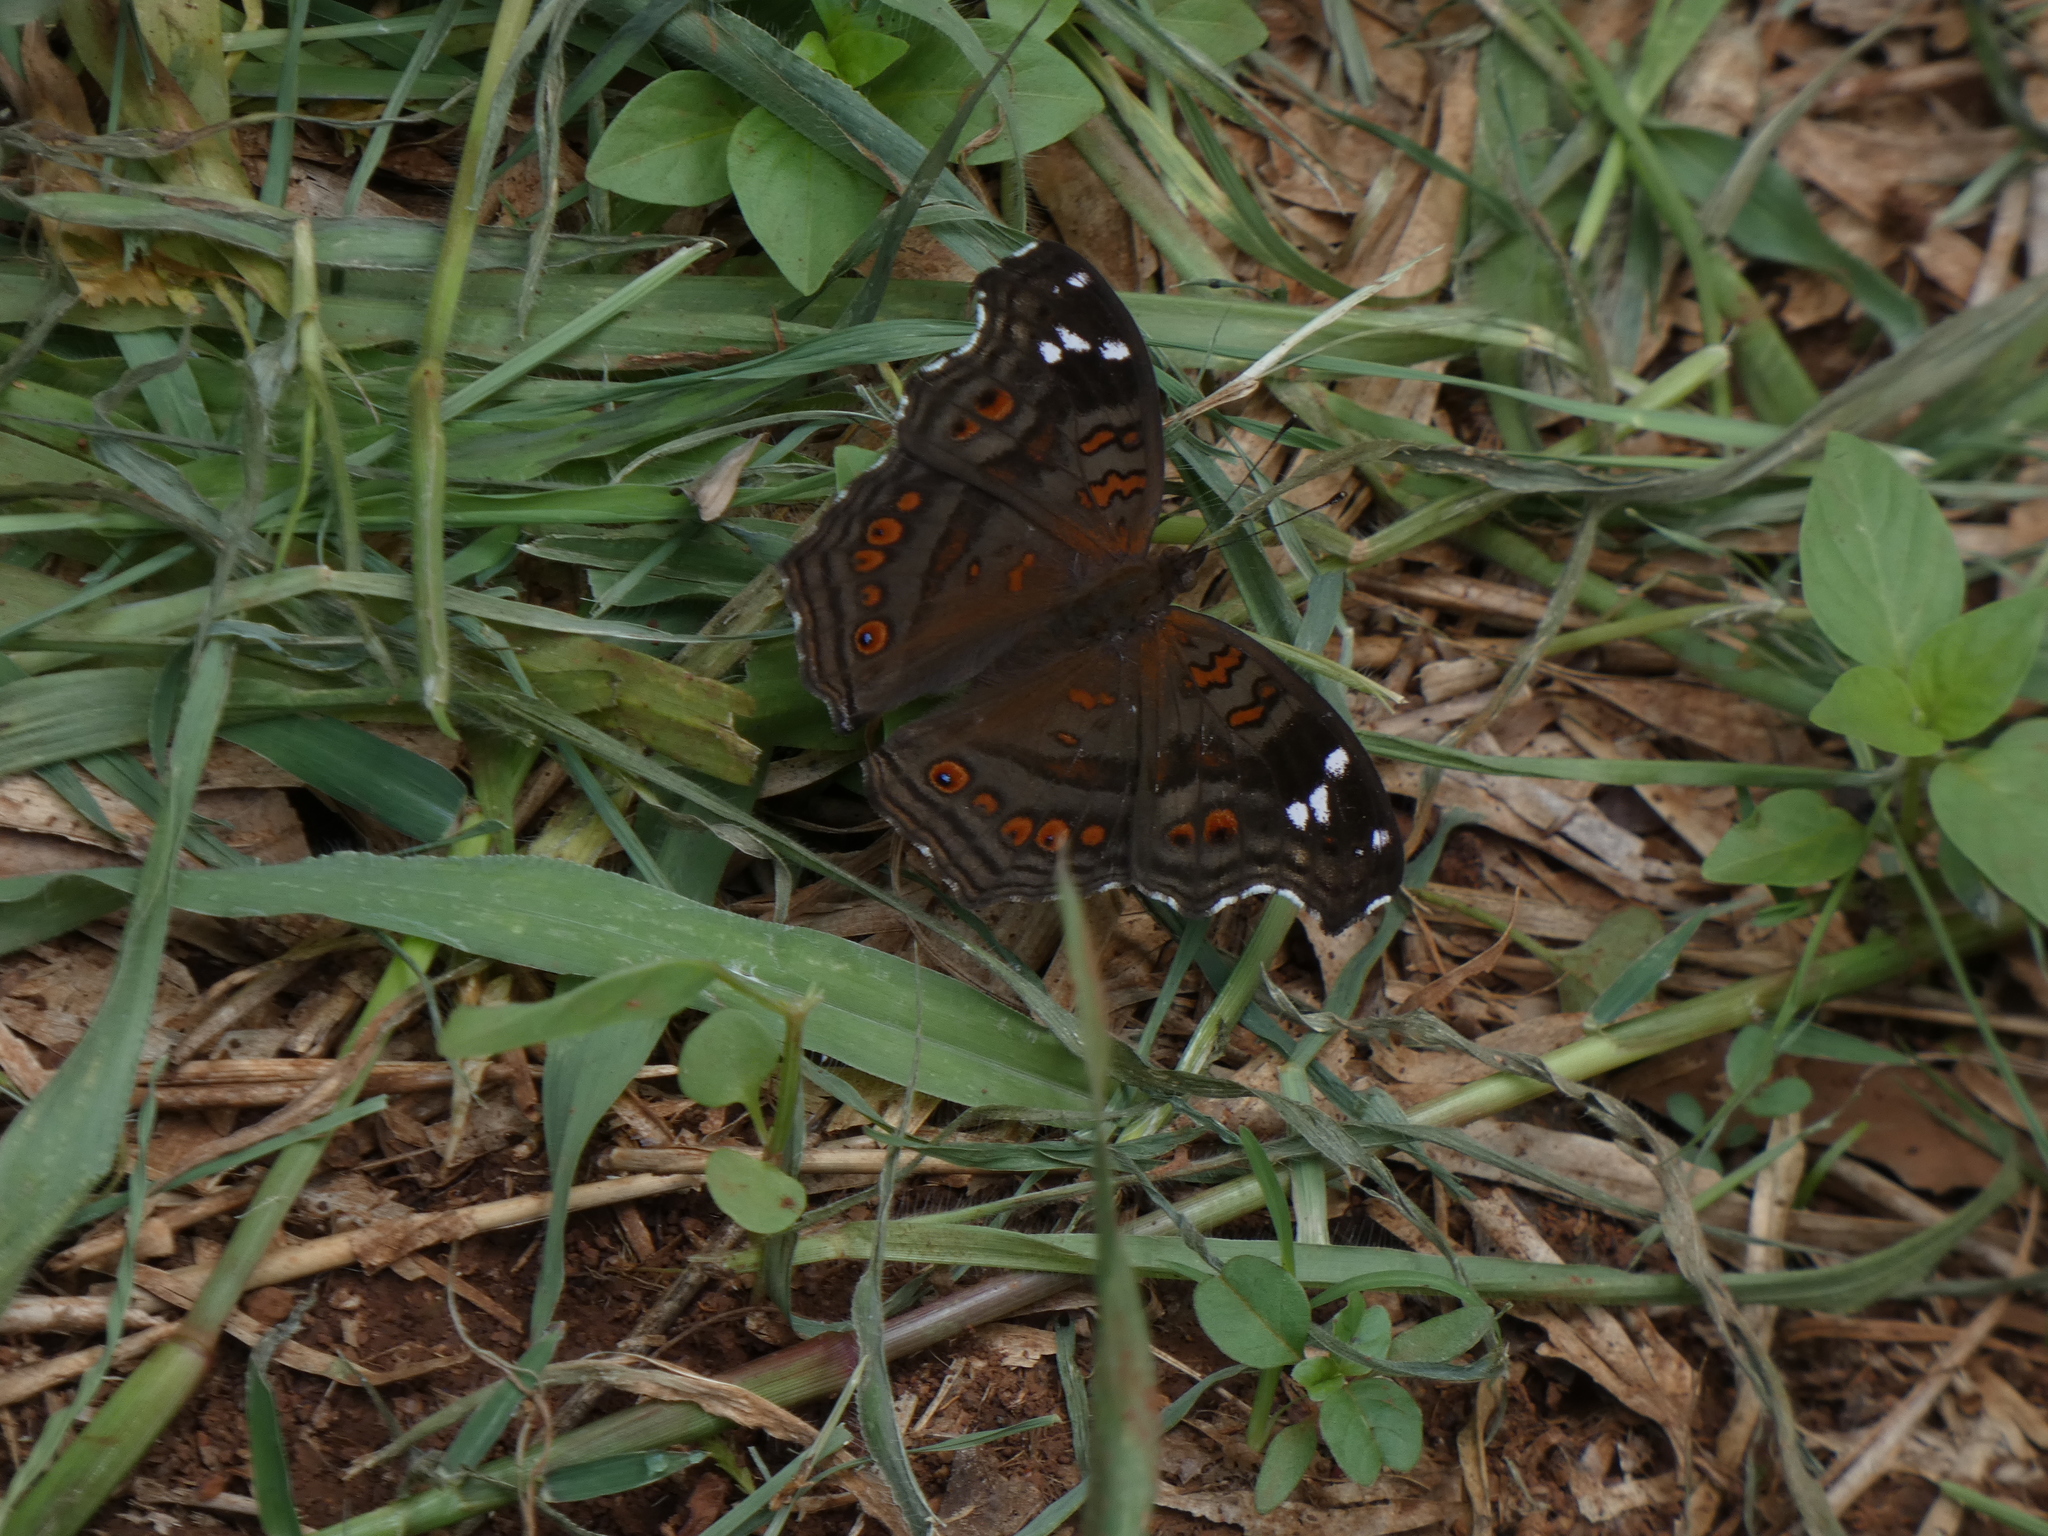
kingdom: Animalia
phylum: Arthropoda
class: Insecta
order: Lepidoptera
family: Nymphalidae
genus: Junonia
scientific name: Junonia natalica
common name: Brown pansy
